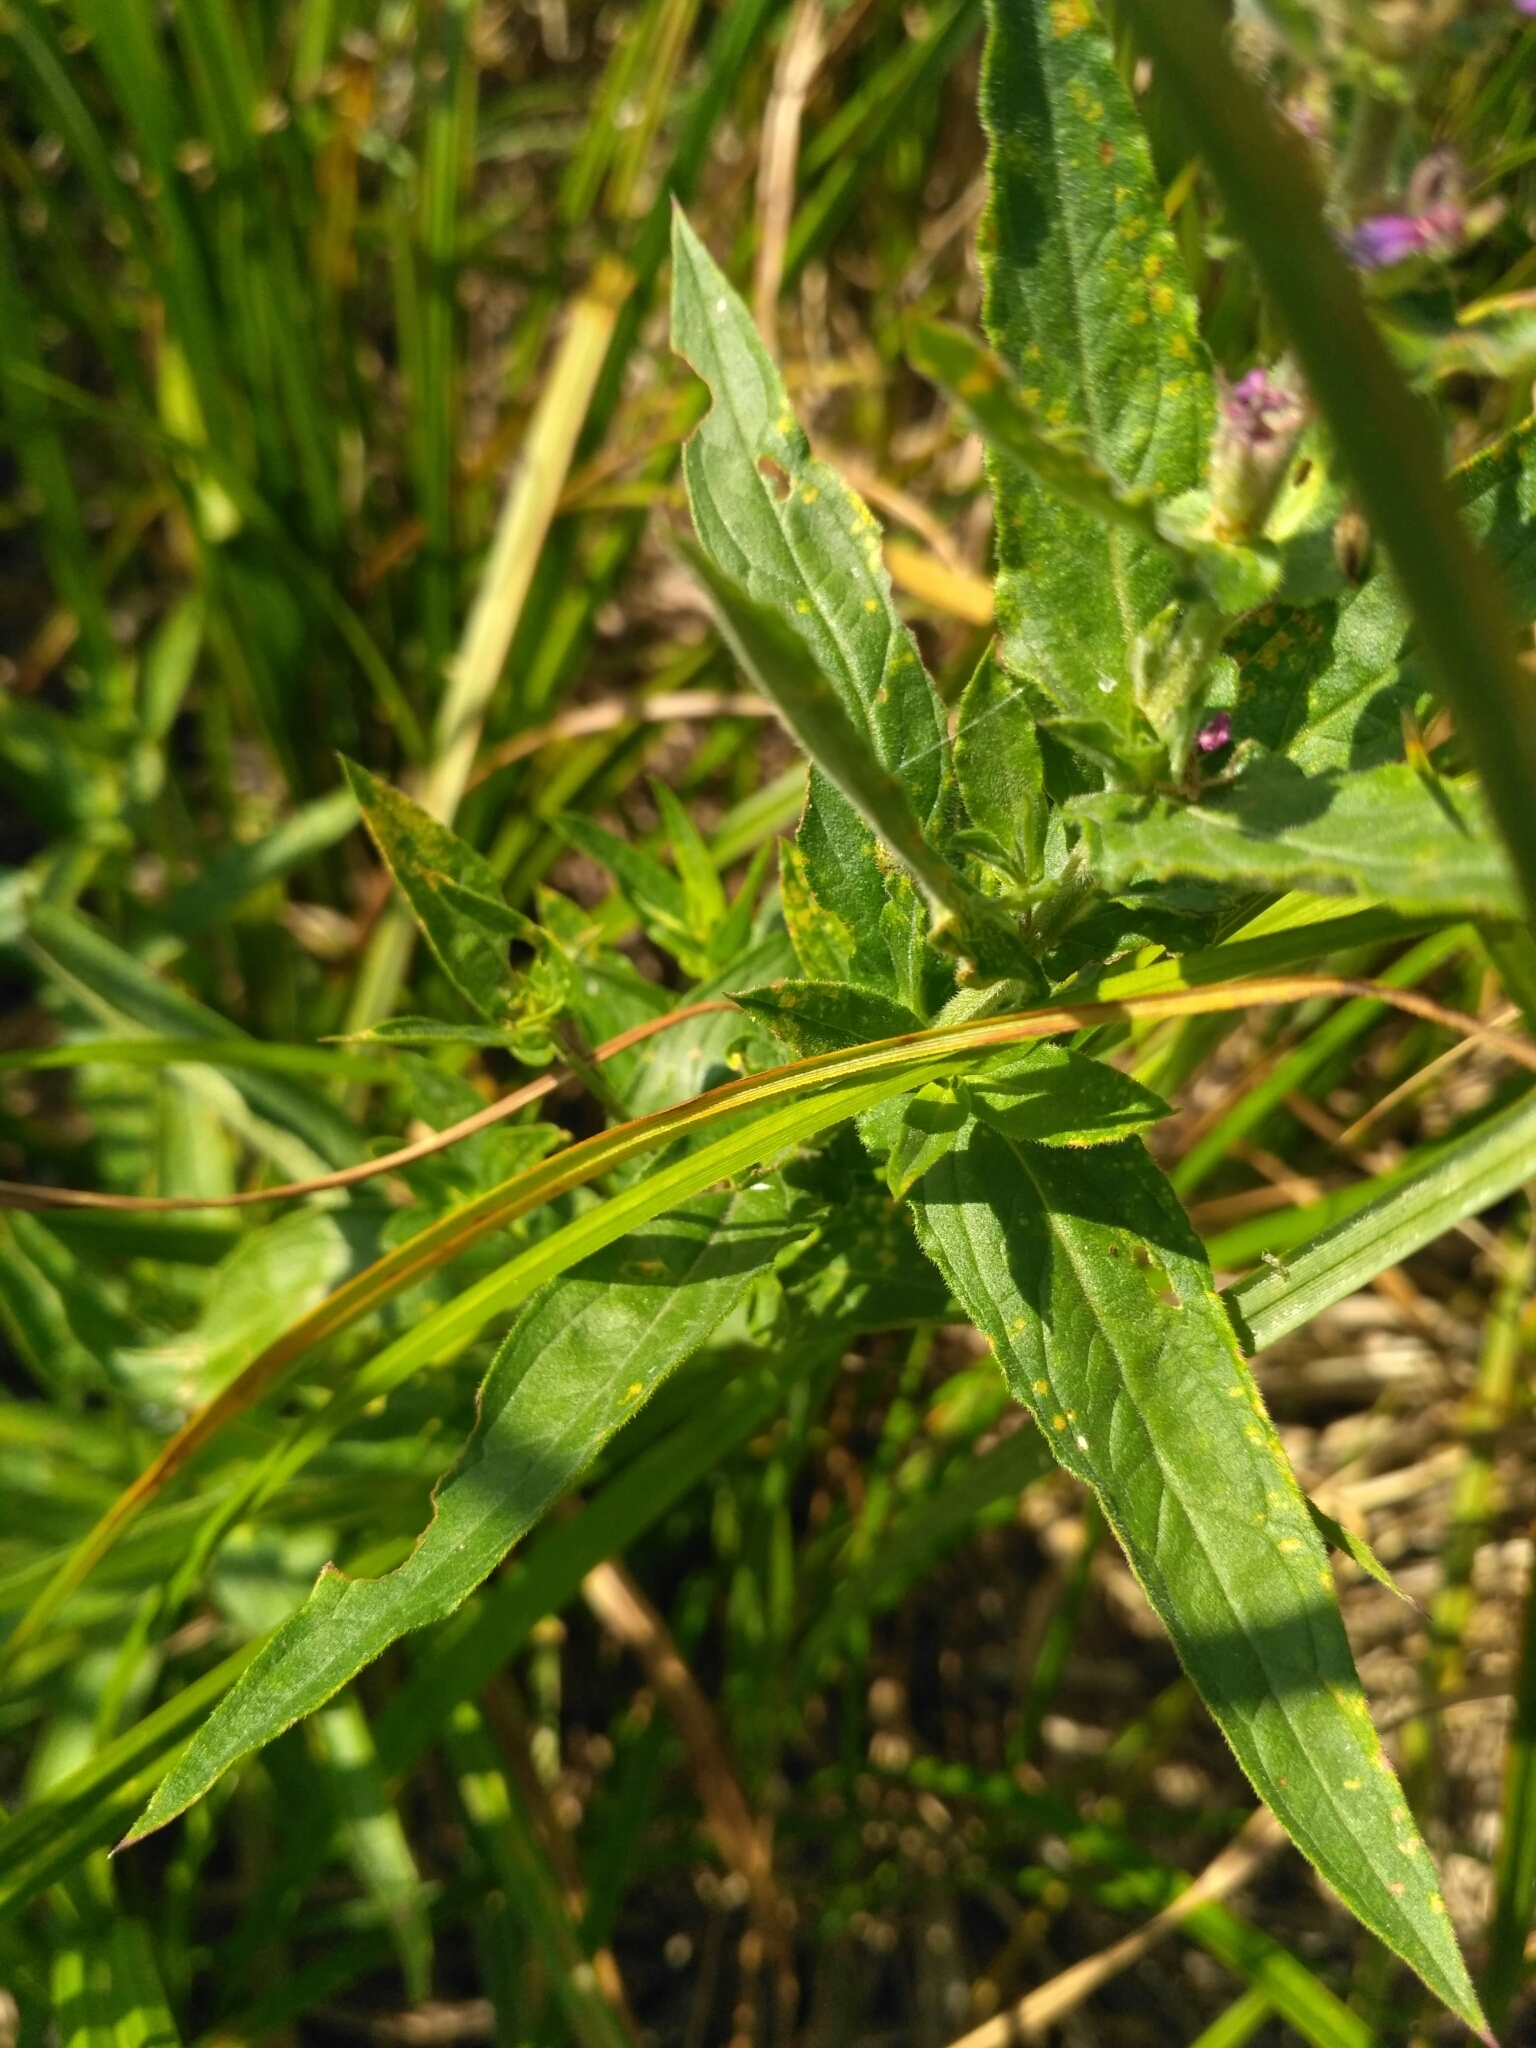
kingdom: Plantae
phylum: Tracheophyta
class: Magnoliopsida
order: Myrtales
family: Lythraceae
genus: Lythrum
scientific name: Lythrum salicaria
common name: Purple loosestrife
